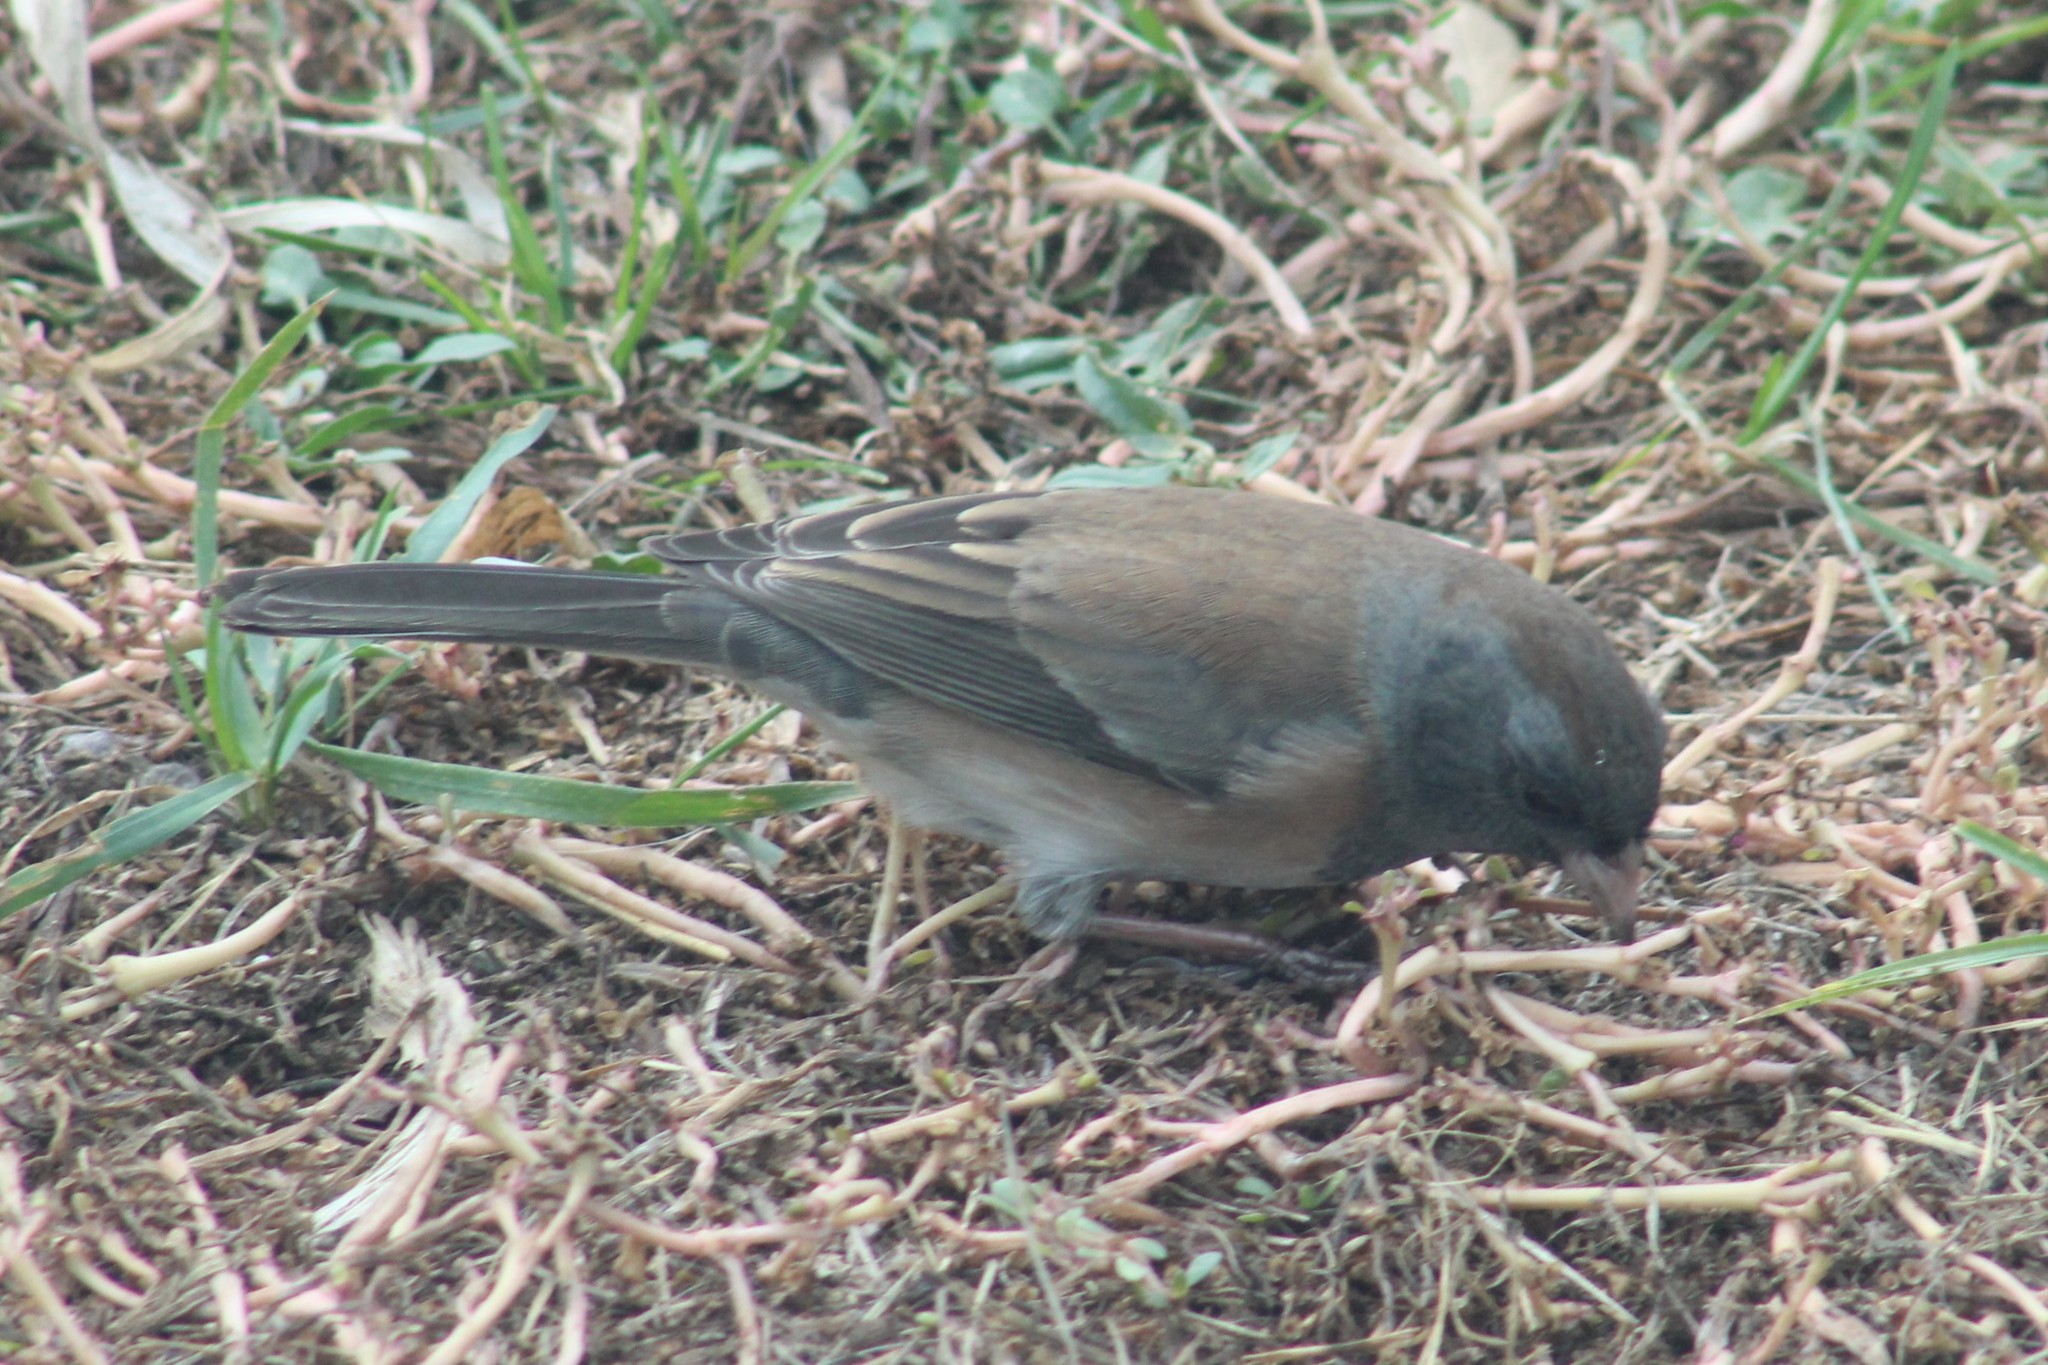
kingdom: Animalia
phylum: Chordata
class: Aves
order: Passeriformes
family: Passerellidae
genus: Junco
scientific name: Junco hyemalis
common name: Dark-eyed junco
